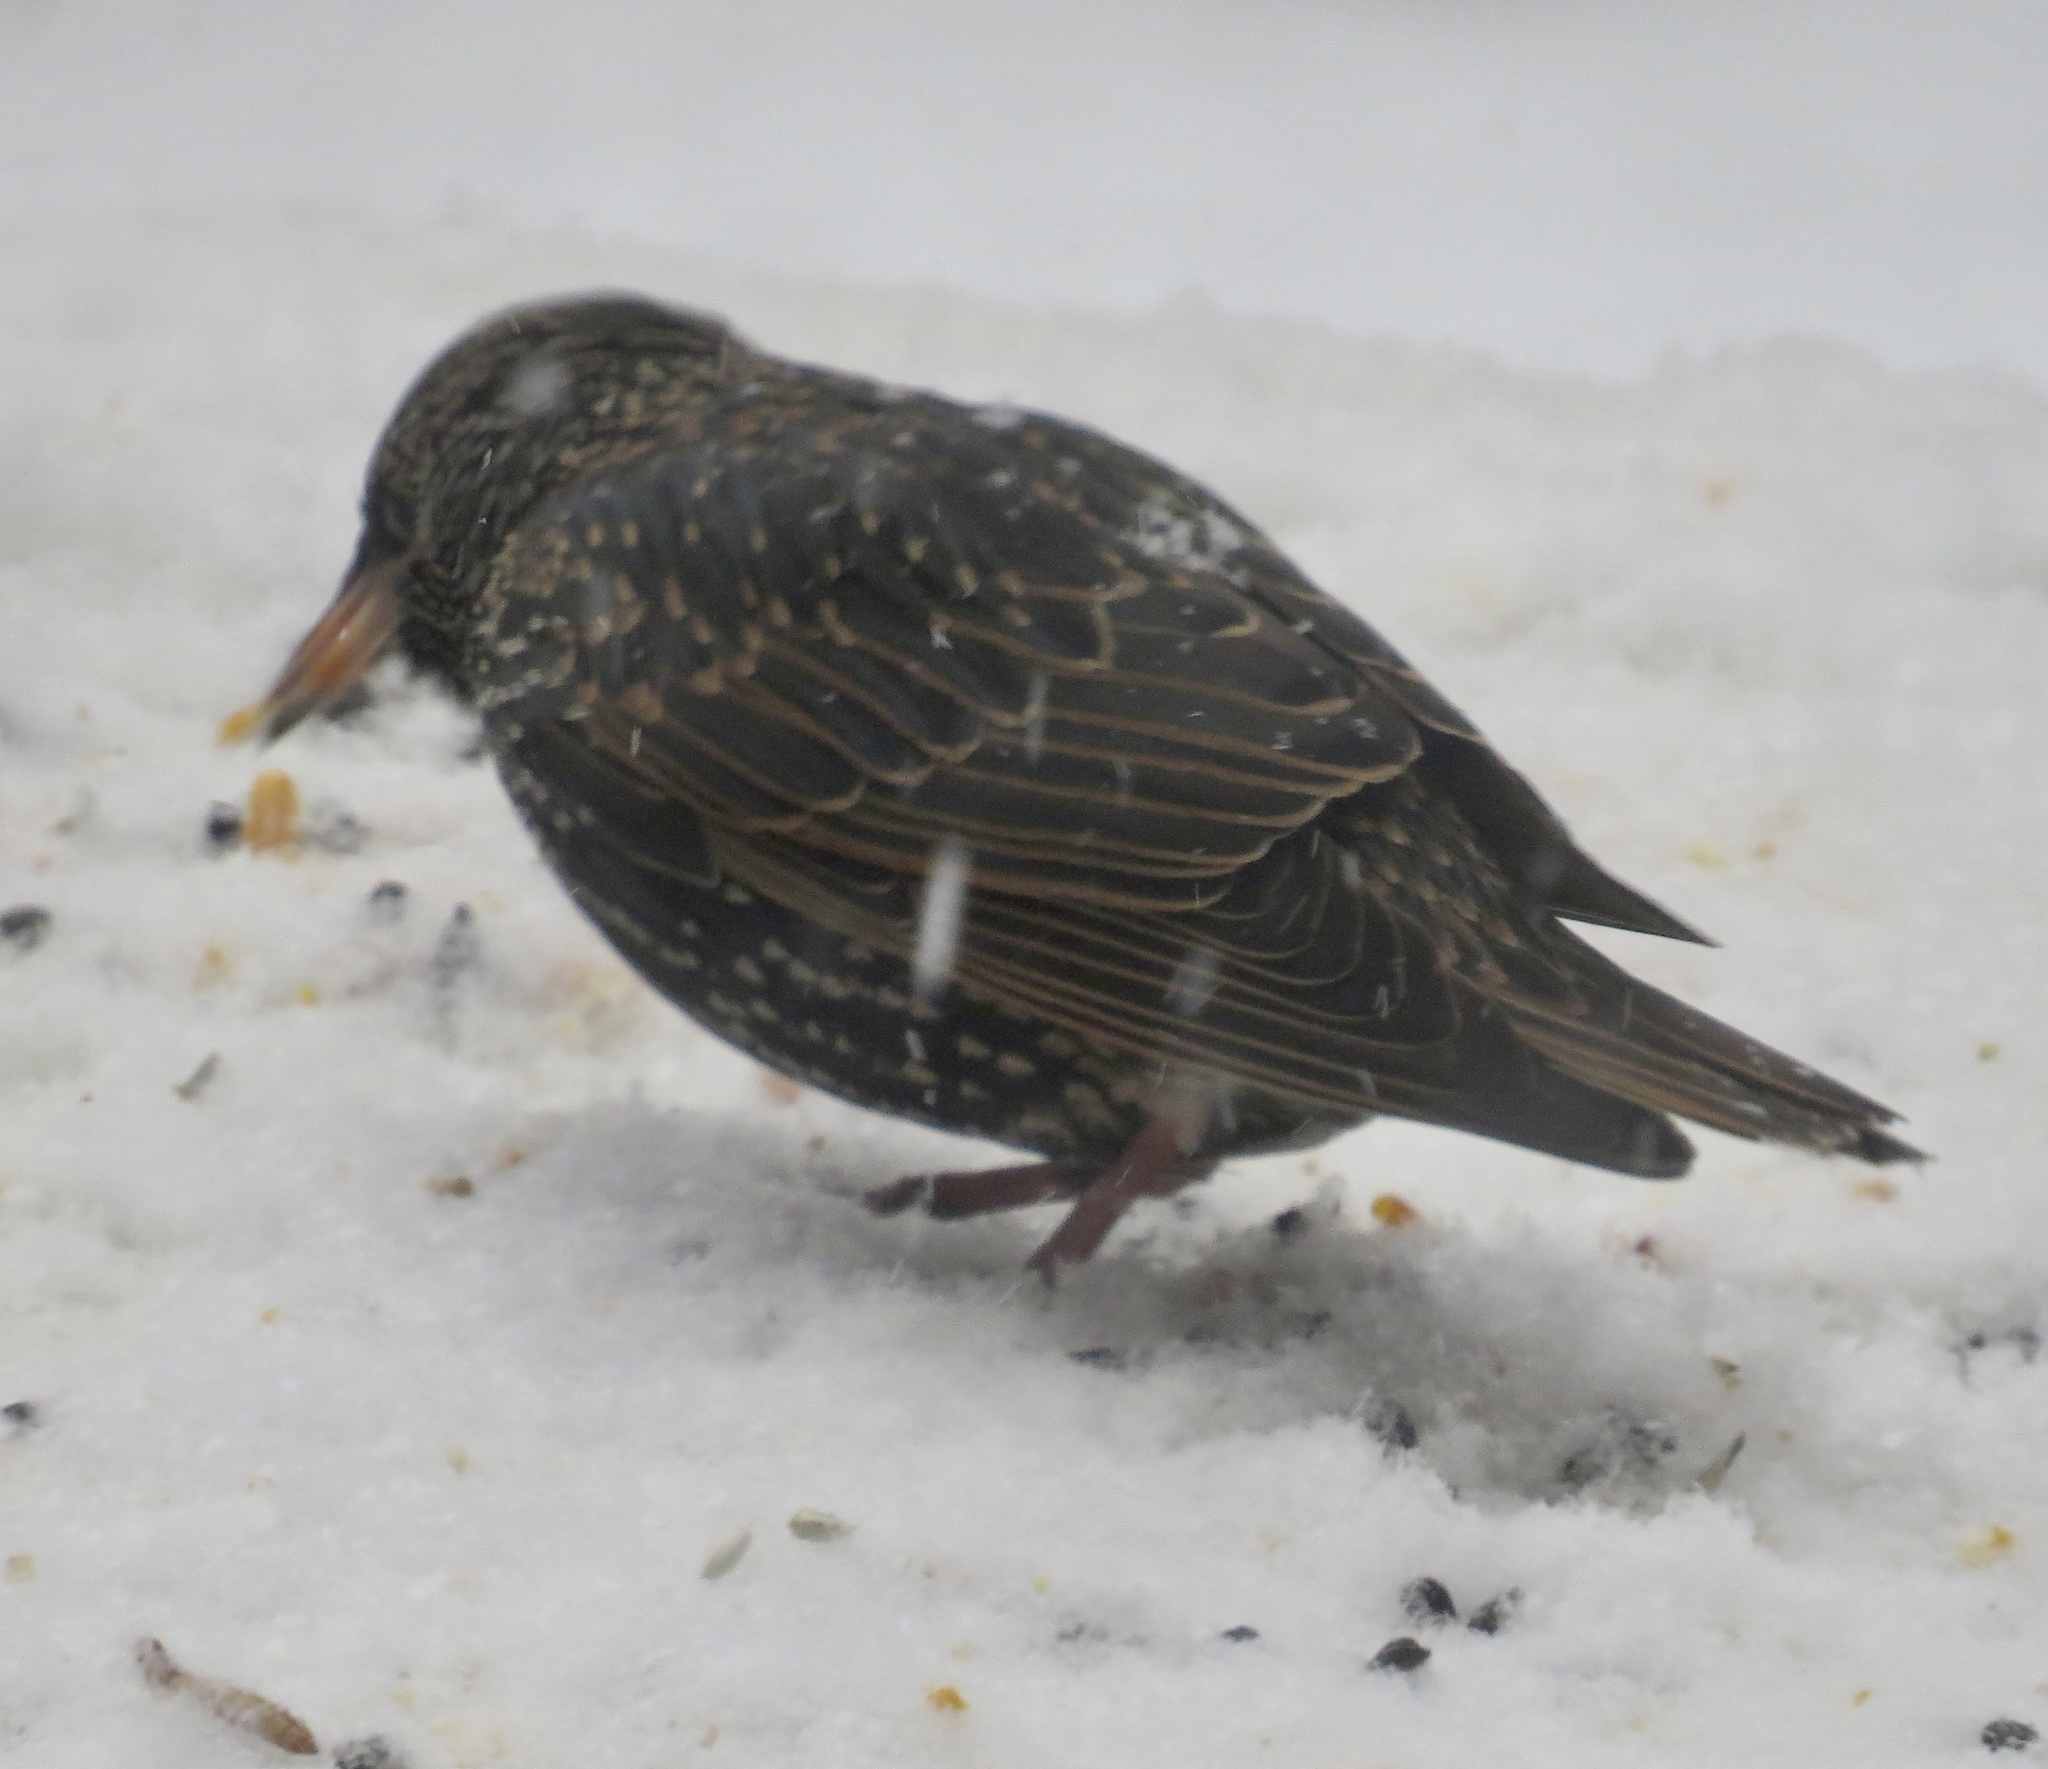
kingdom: Animalia
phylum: Chordata
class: Aves
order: Passeriformes
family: Sturnidae
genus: Sturnus
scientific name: Sturnus vulgaris
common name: Common starling
